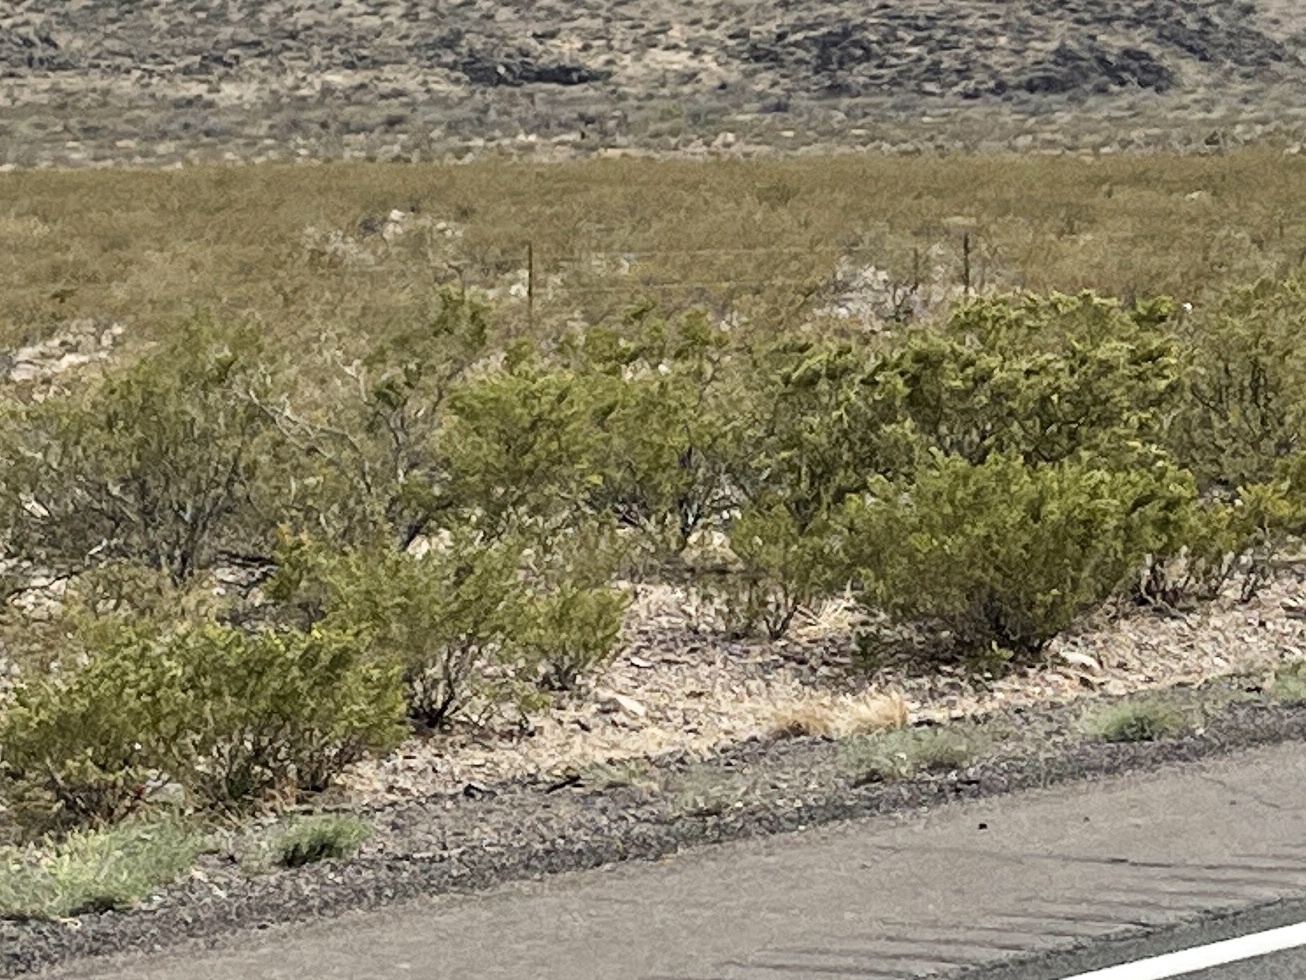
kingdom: Plantae
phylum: Tracheophyta
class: Magnoliopsida
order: Zygophyllales
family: Zygophyllaceae
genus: Larrea
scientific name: Larrea tridentata
